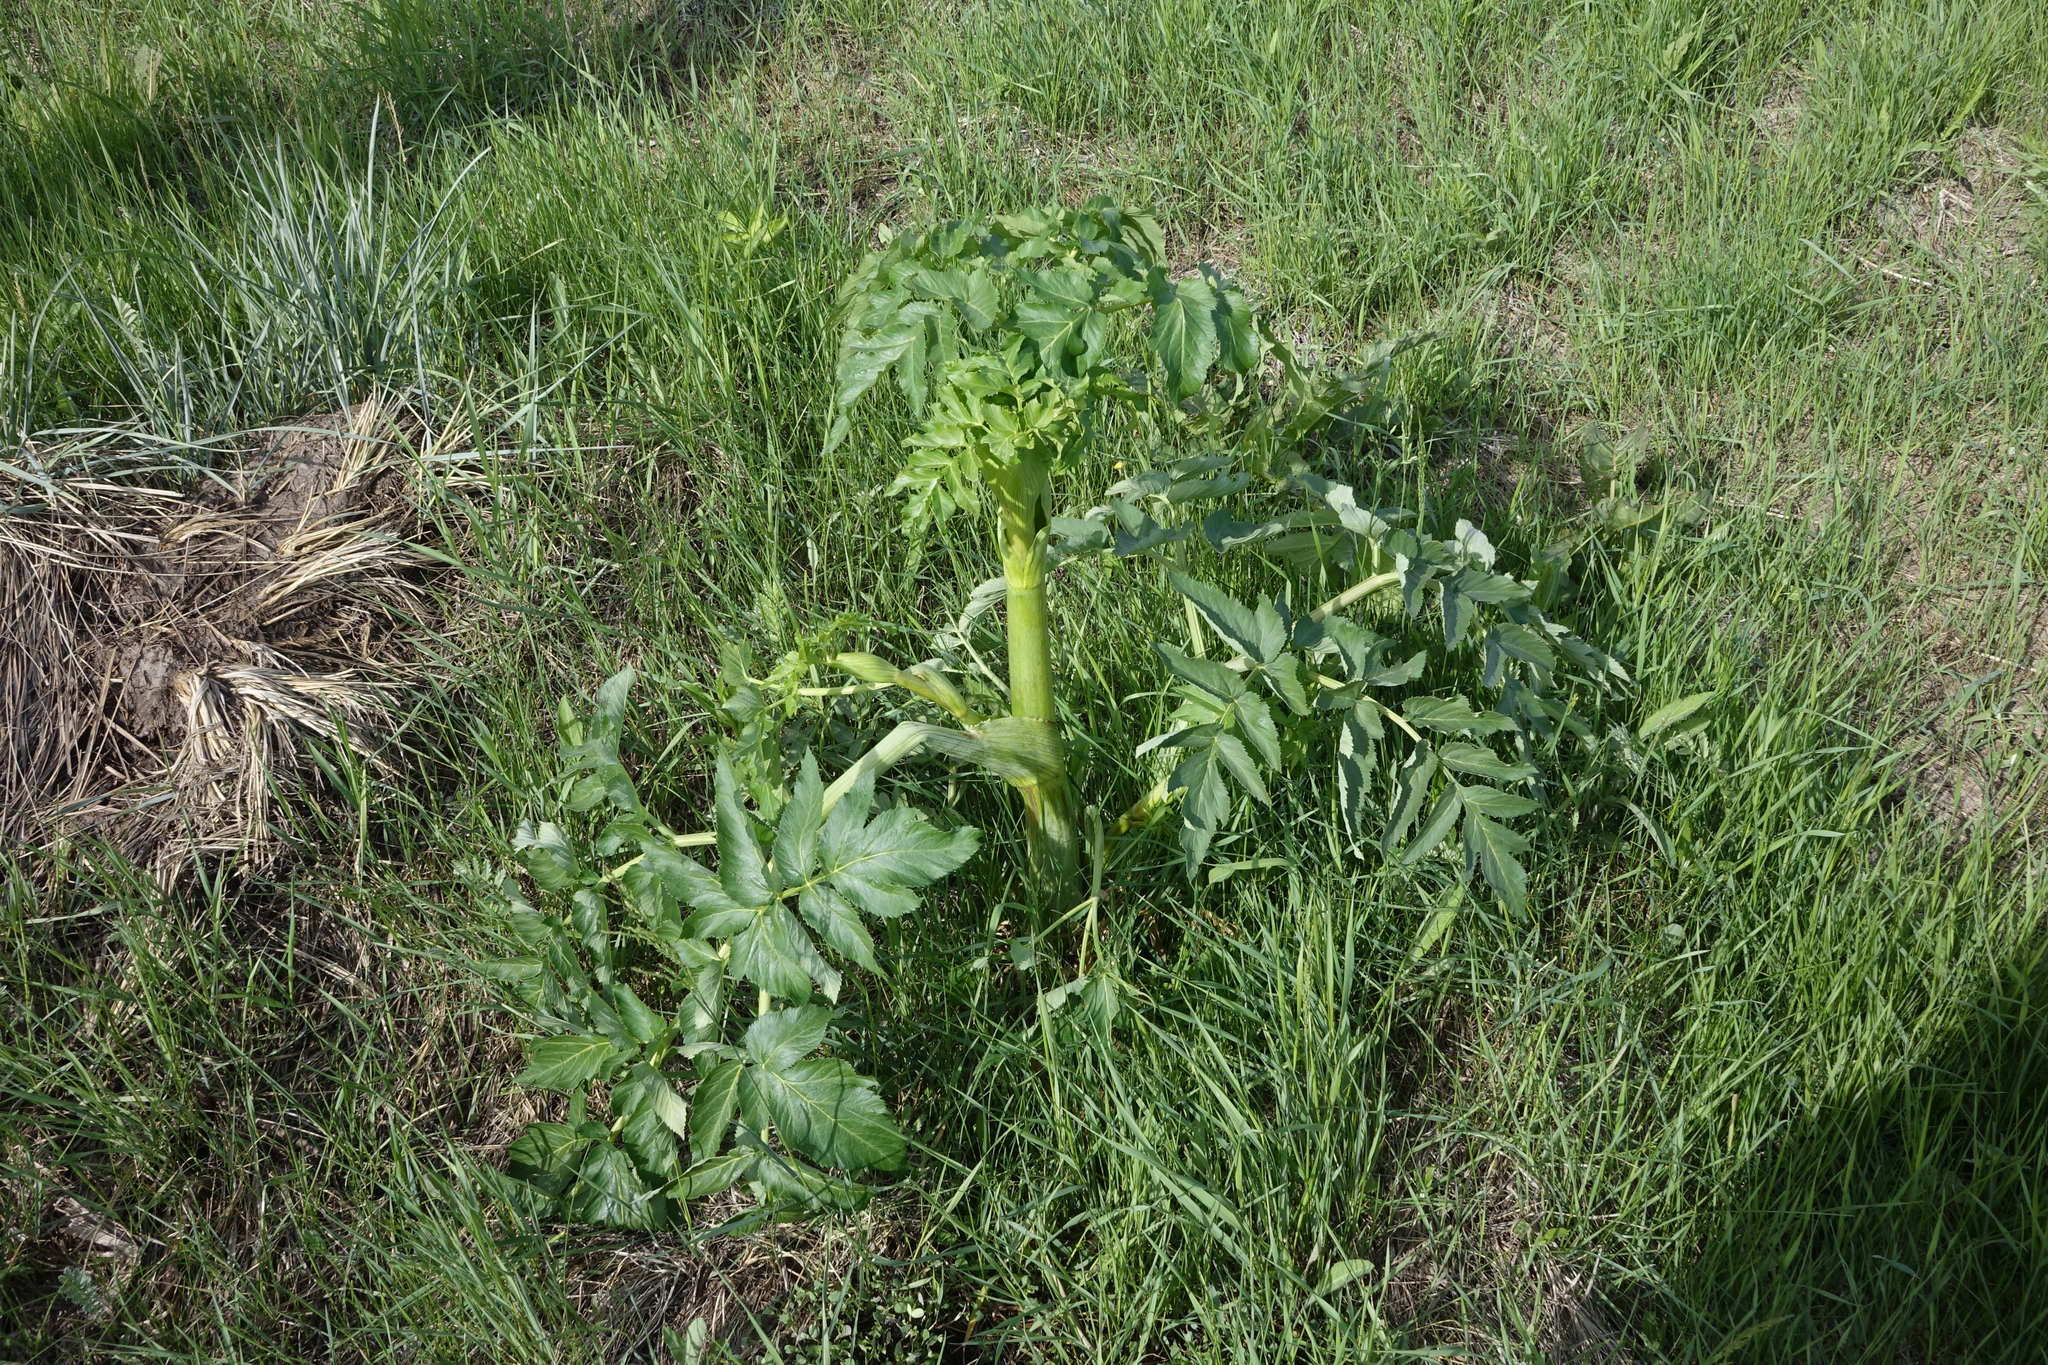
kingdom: Plantae
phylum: Tracheophyta
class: Magnoliopsida
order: Apiales
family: Apiaceae
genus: Angelica
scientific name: Angelica decurrens
